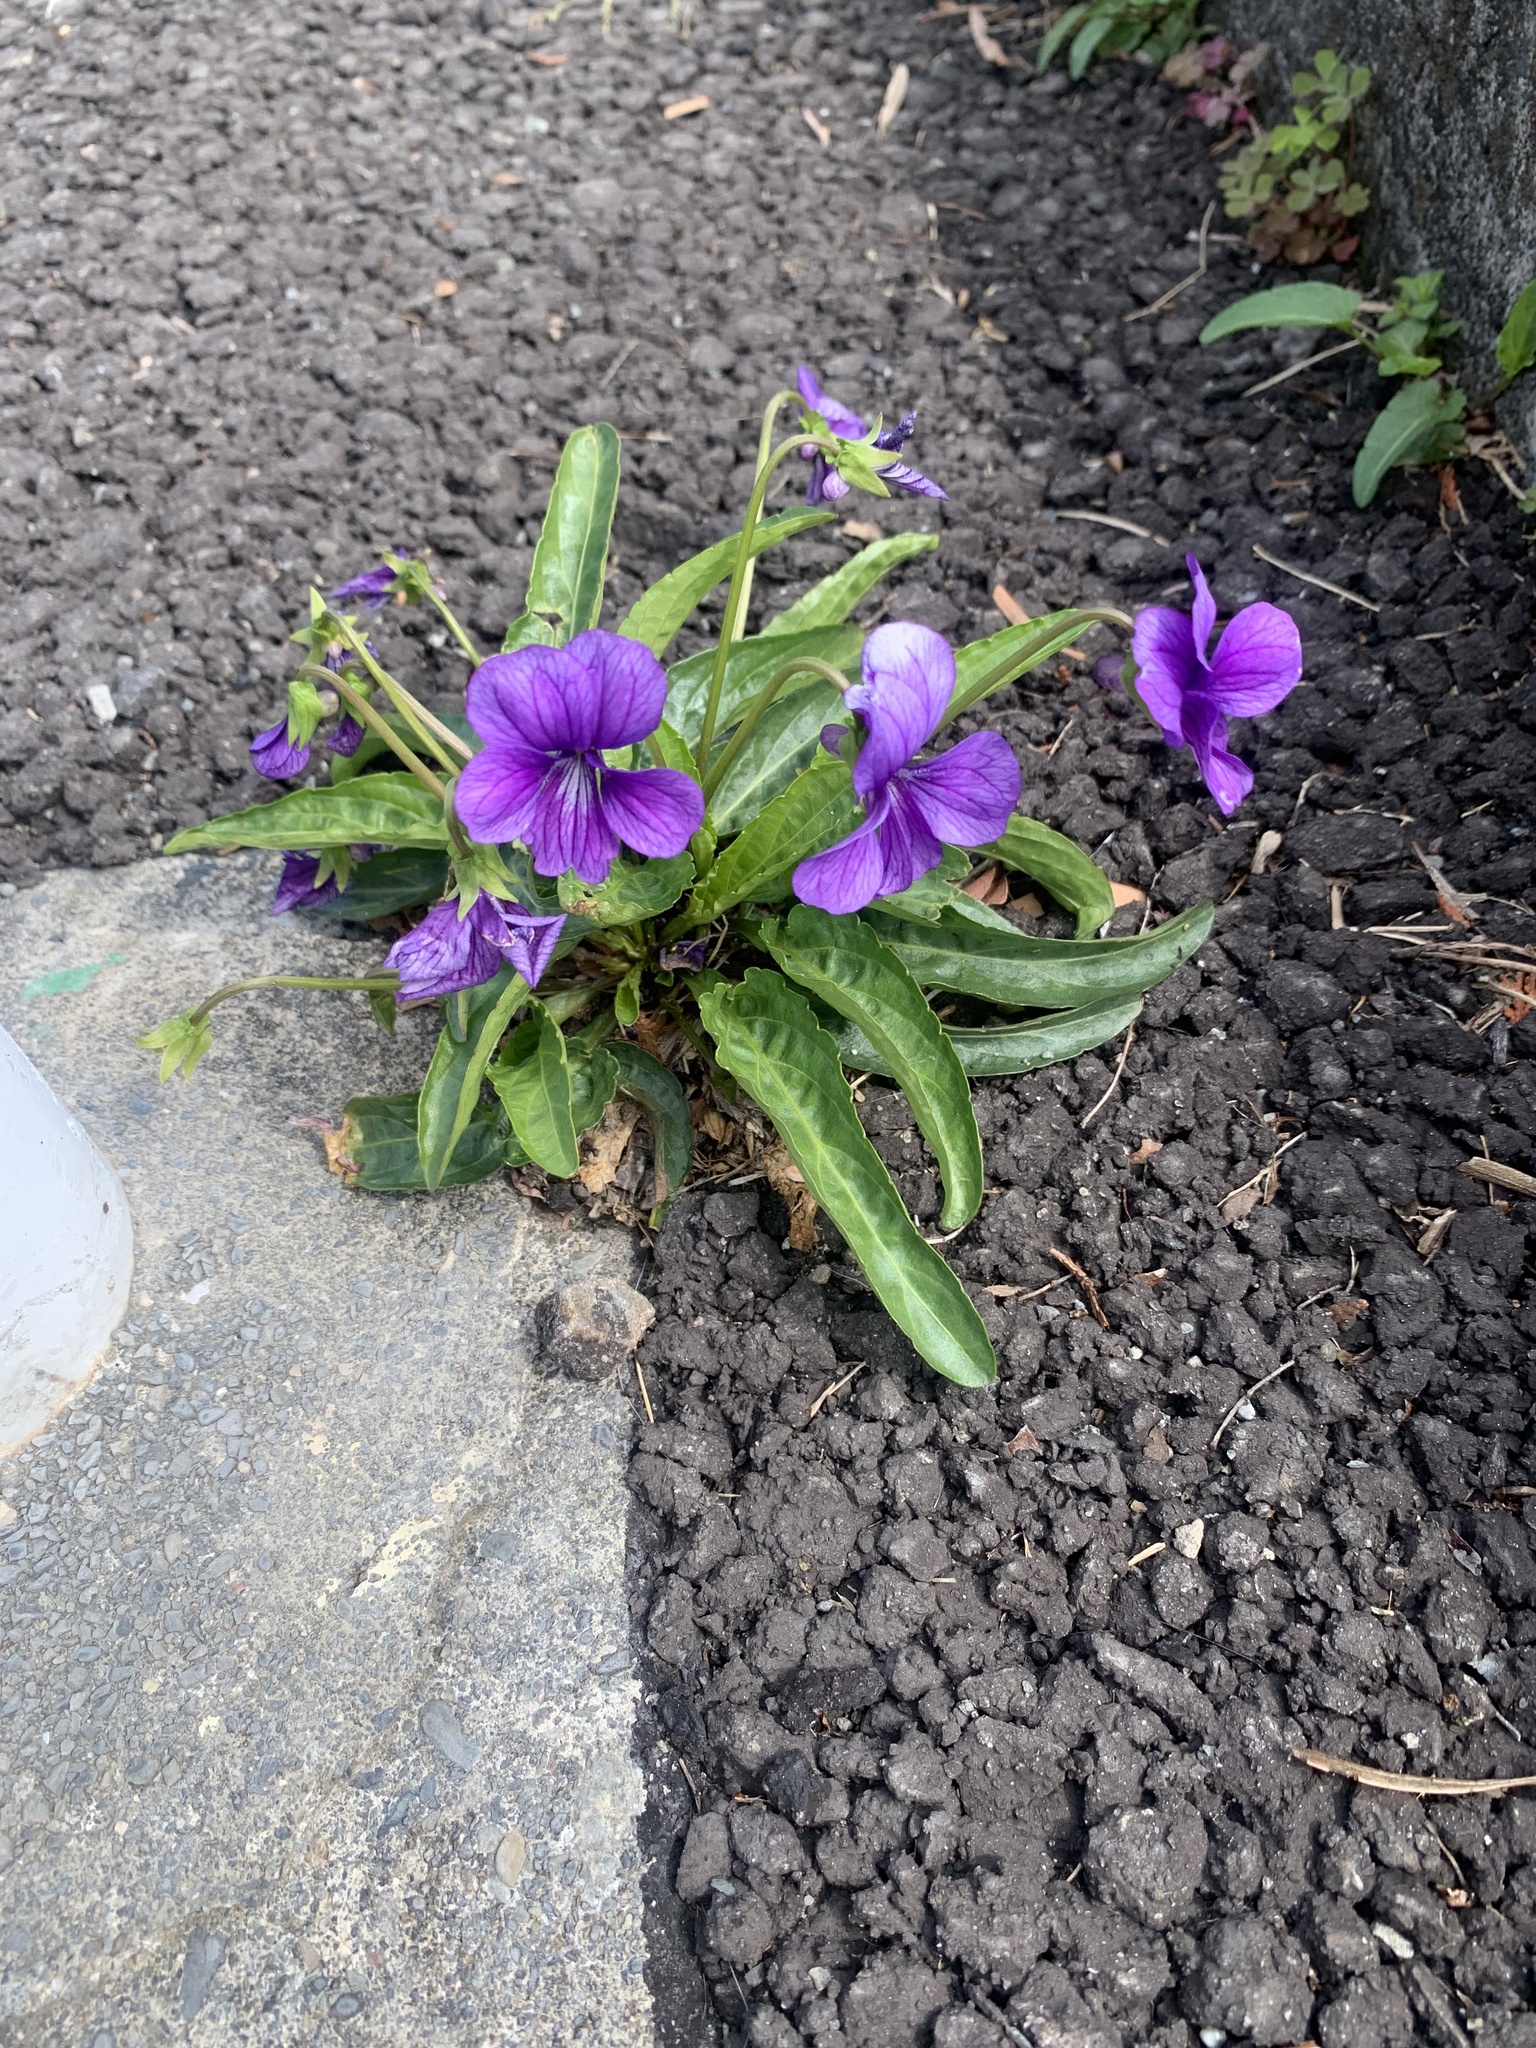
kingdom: Plantae
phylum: Tracheophyta
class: Magnoliopsida
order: Malpighiales
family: Violaceae
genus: Viola
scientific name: Viola mandshurica
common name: Manchuria violet
